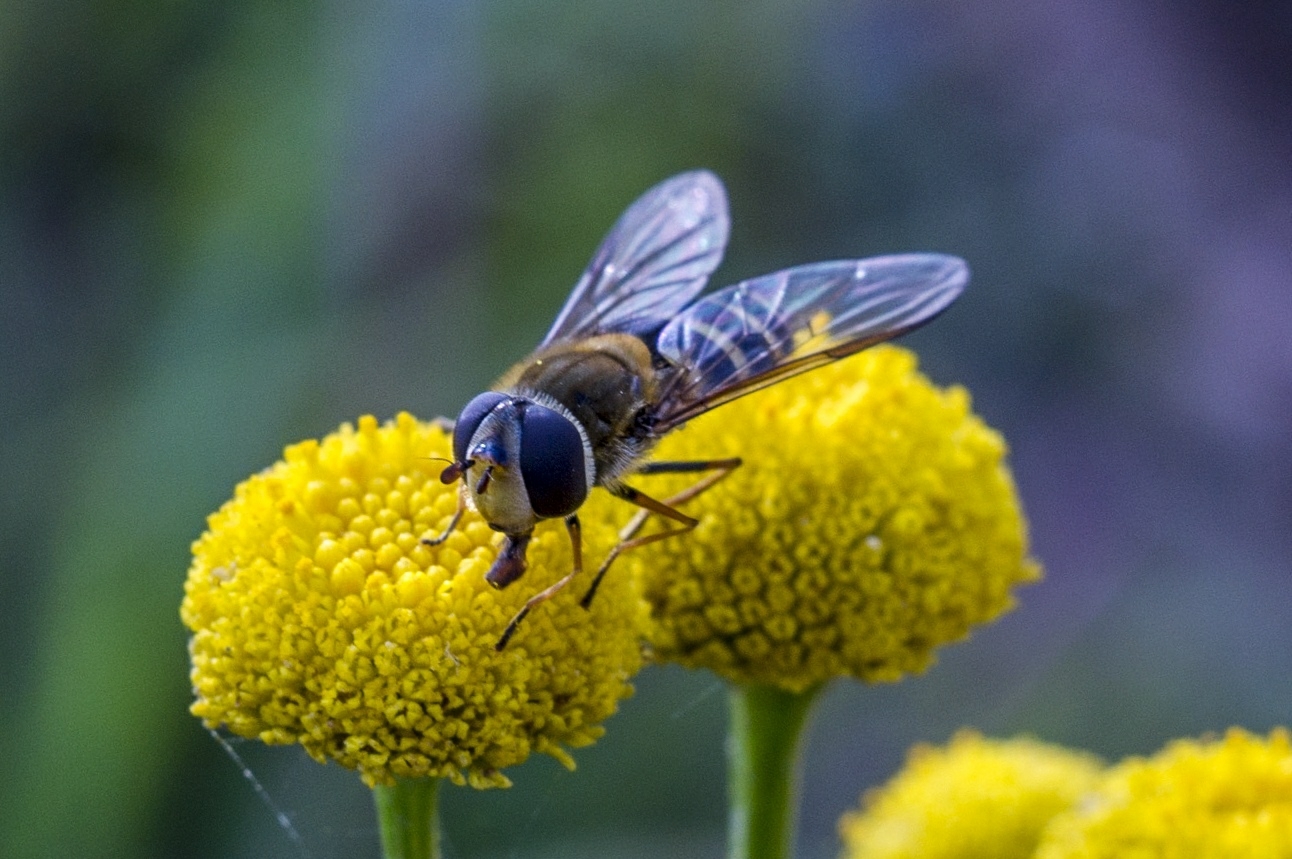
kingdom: Animalia
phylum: Arthropoda
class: Insecta
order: Diptera
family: Syrphidae
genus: Syrphus
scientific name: Syrphus
